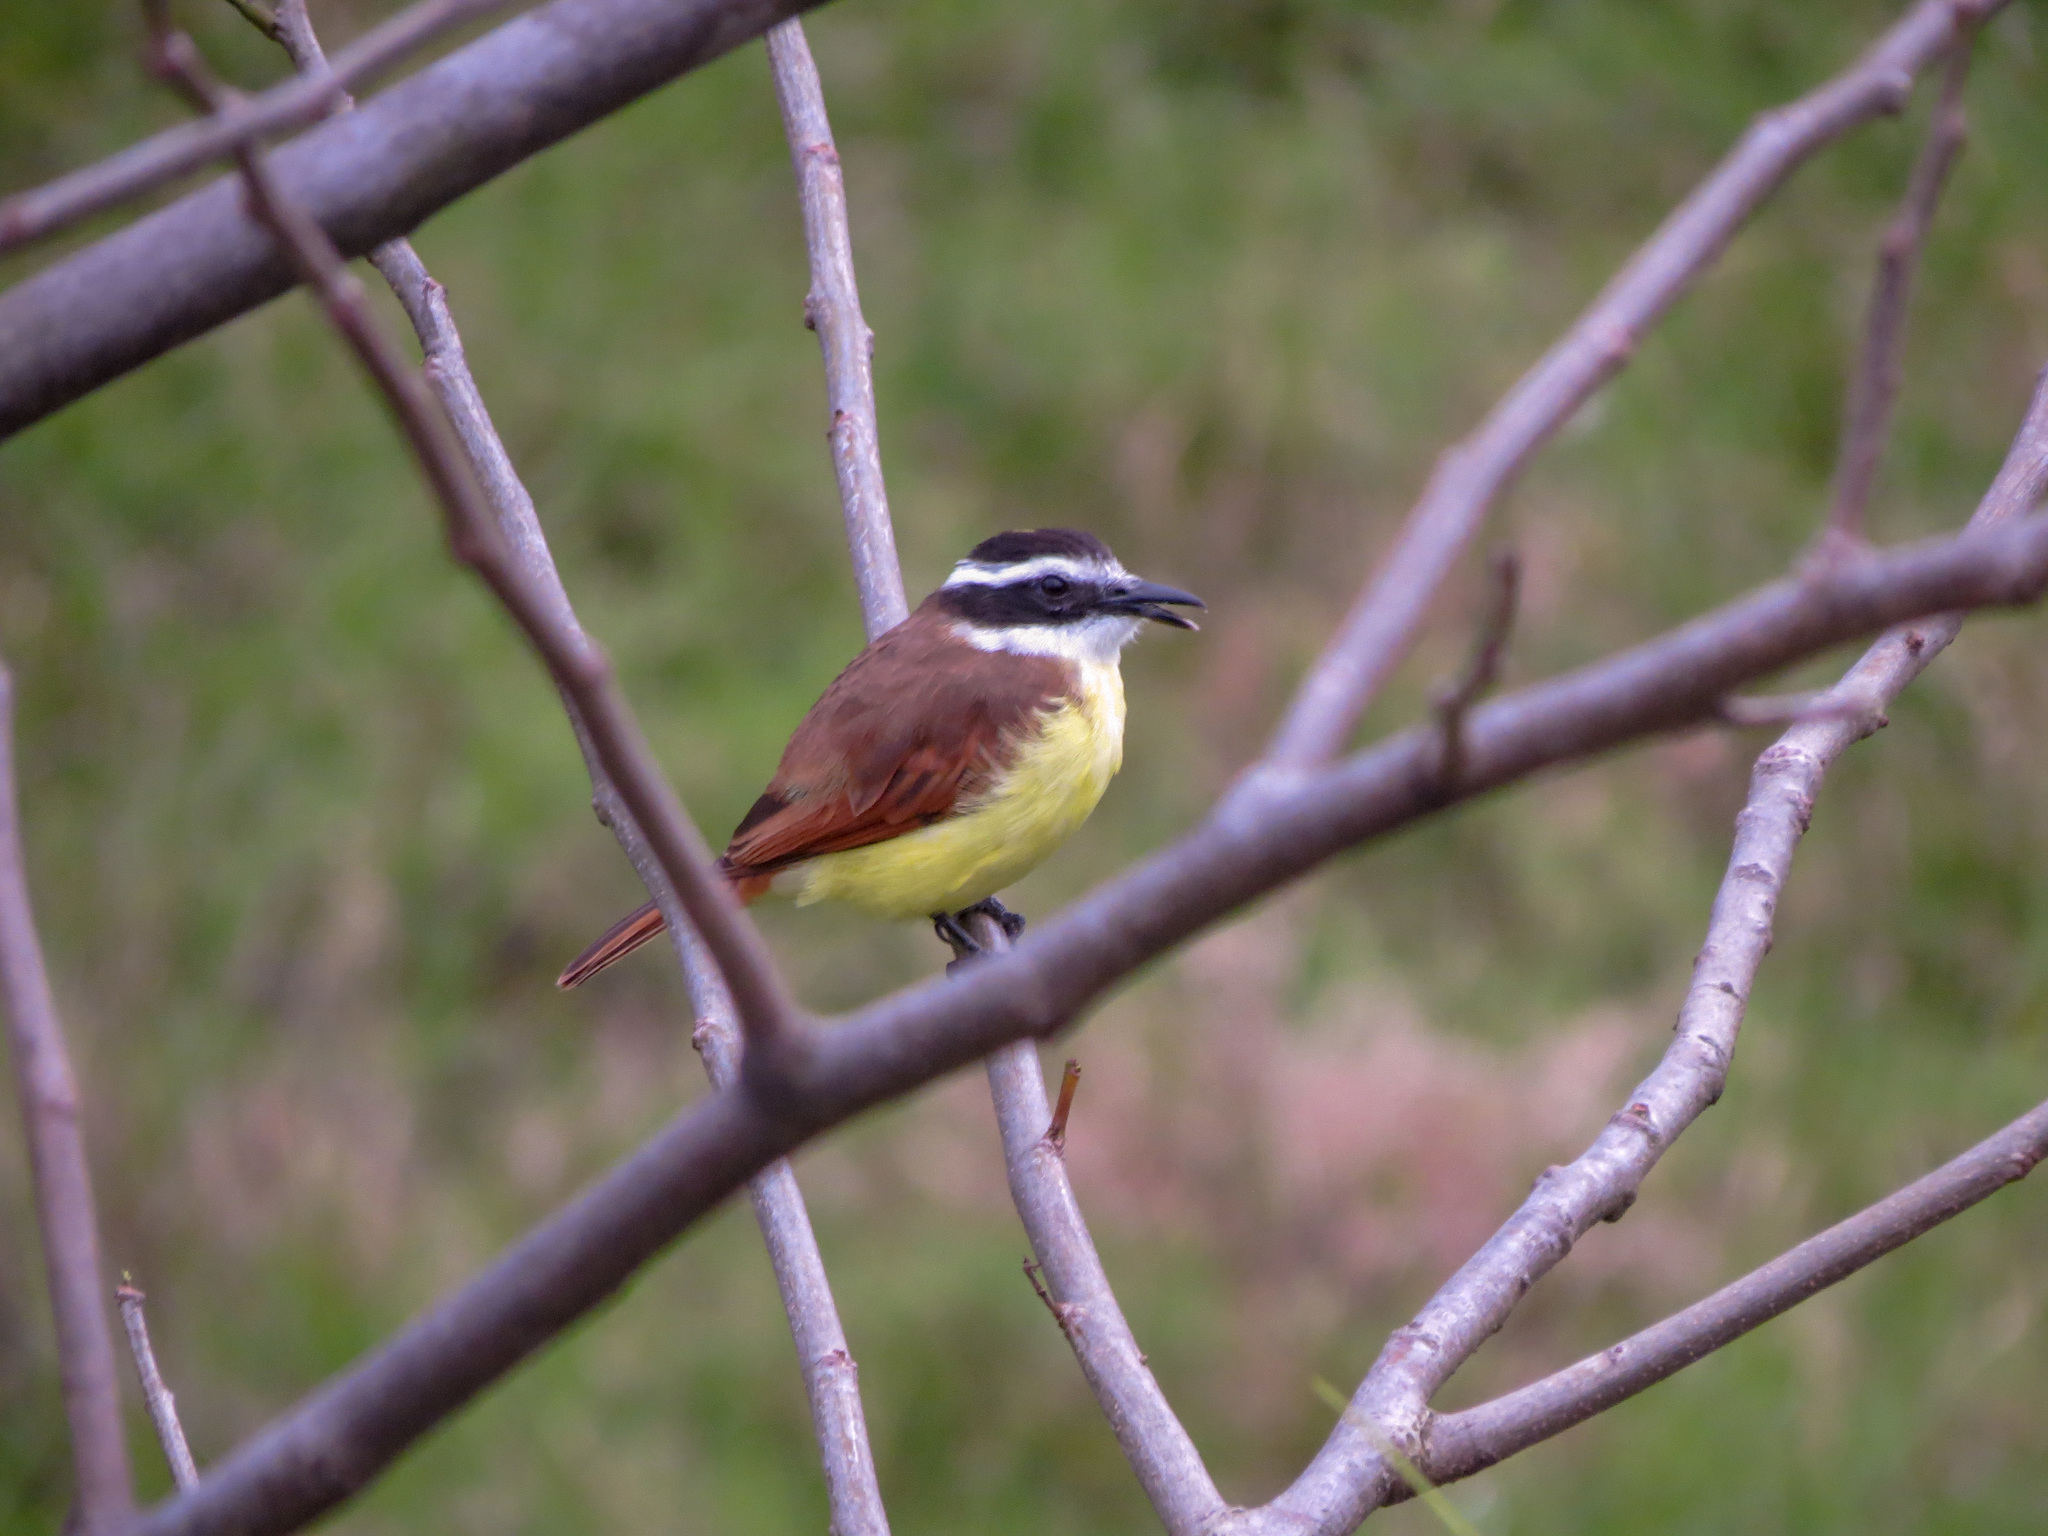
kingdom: Animalia
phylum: Chordata
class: Aves
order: Passeriformes
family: Tyrannidae
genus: Pitangus
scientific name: Pitangus sulphuratus
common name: Great kiskadee
